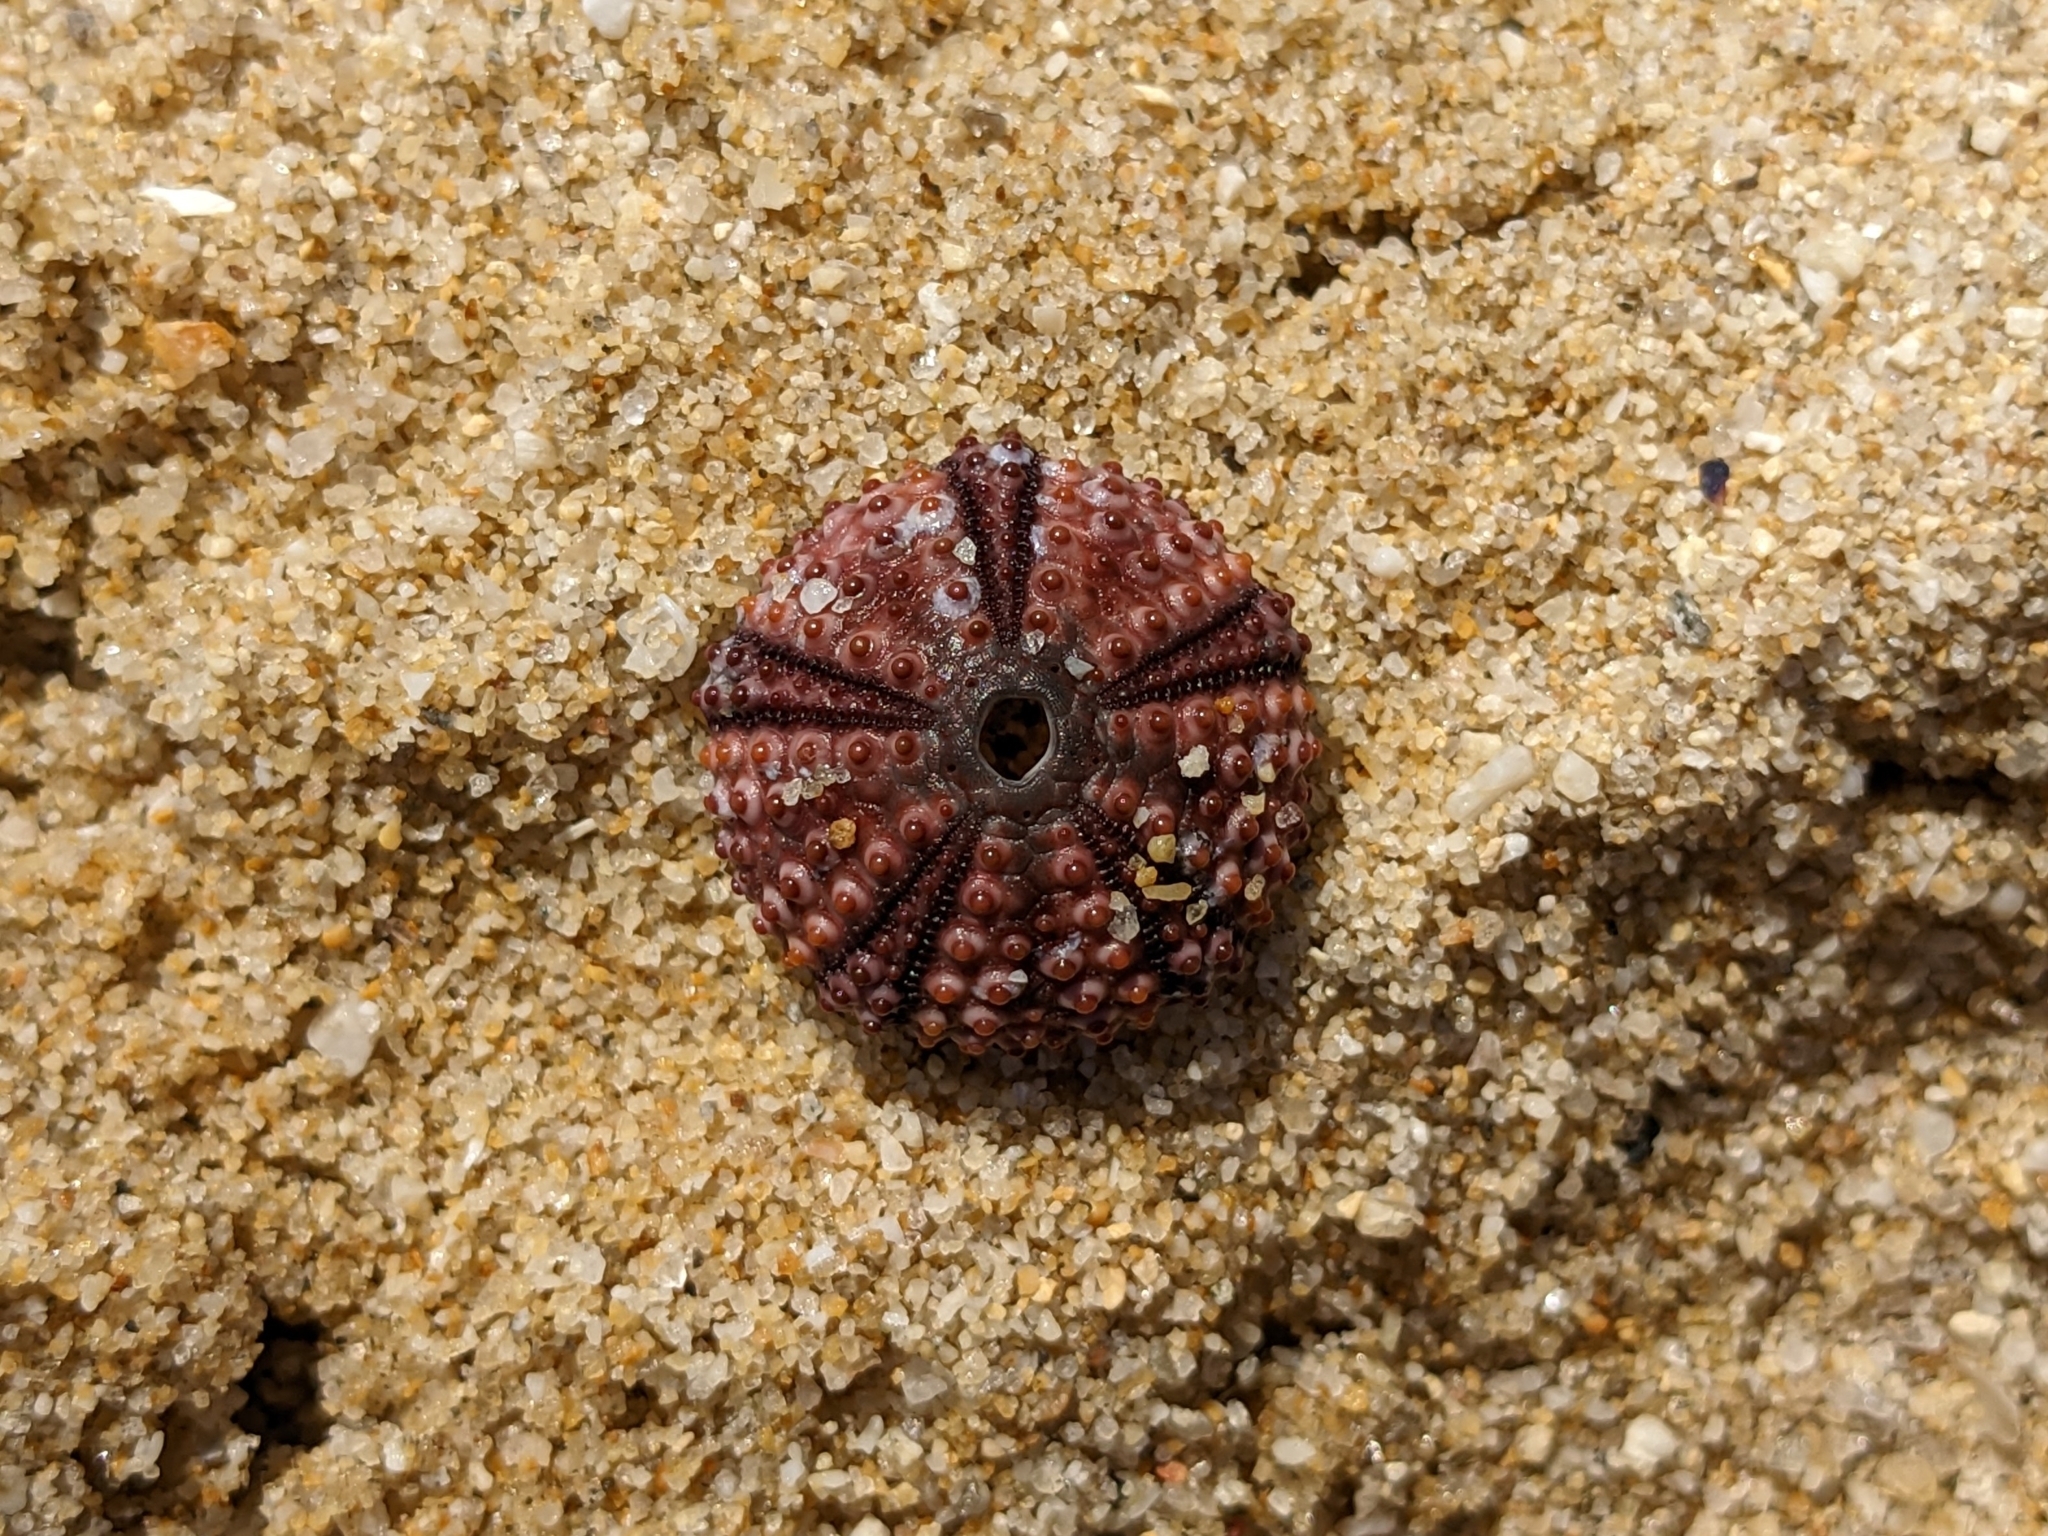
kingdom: Animalia
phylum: Echinodermata
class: Echinoidea
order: Arbacioida
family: Arbaciidae
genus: Arbacia
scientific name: Arbacia lixula
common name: Black sea urchin
